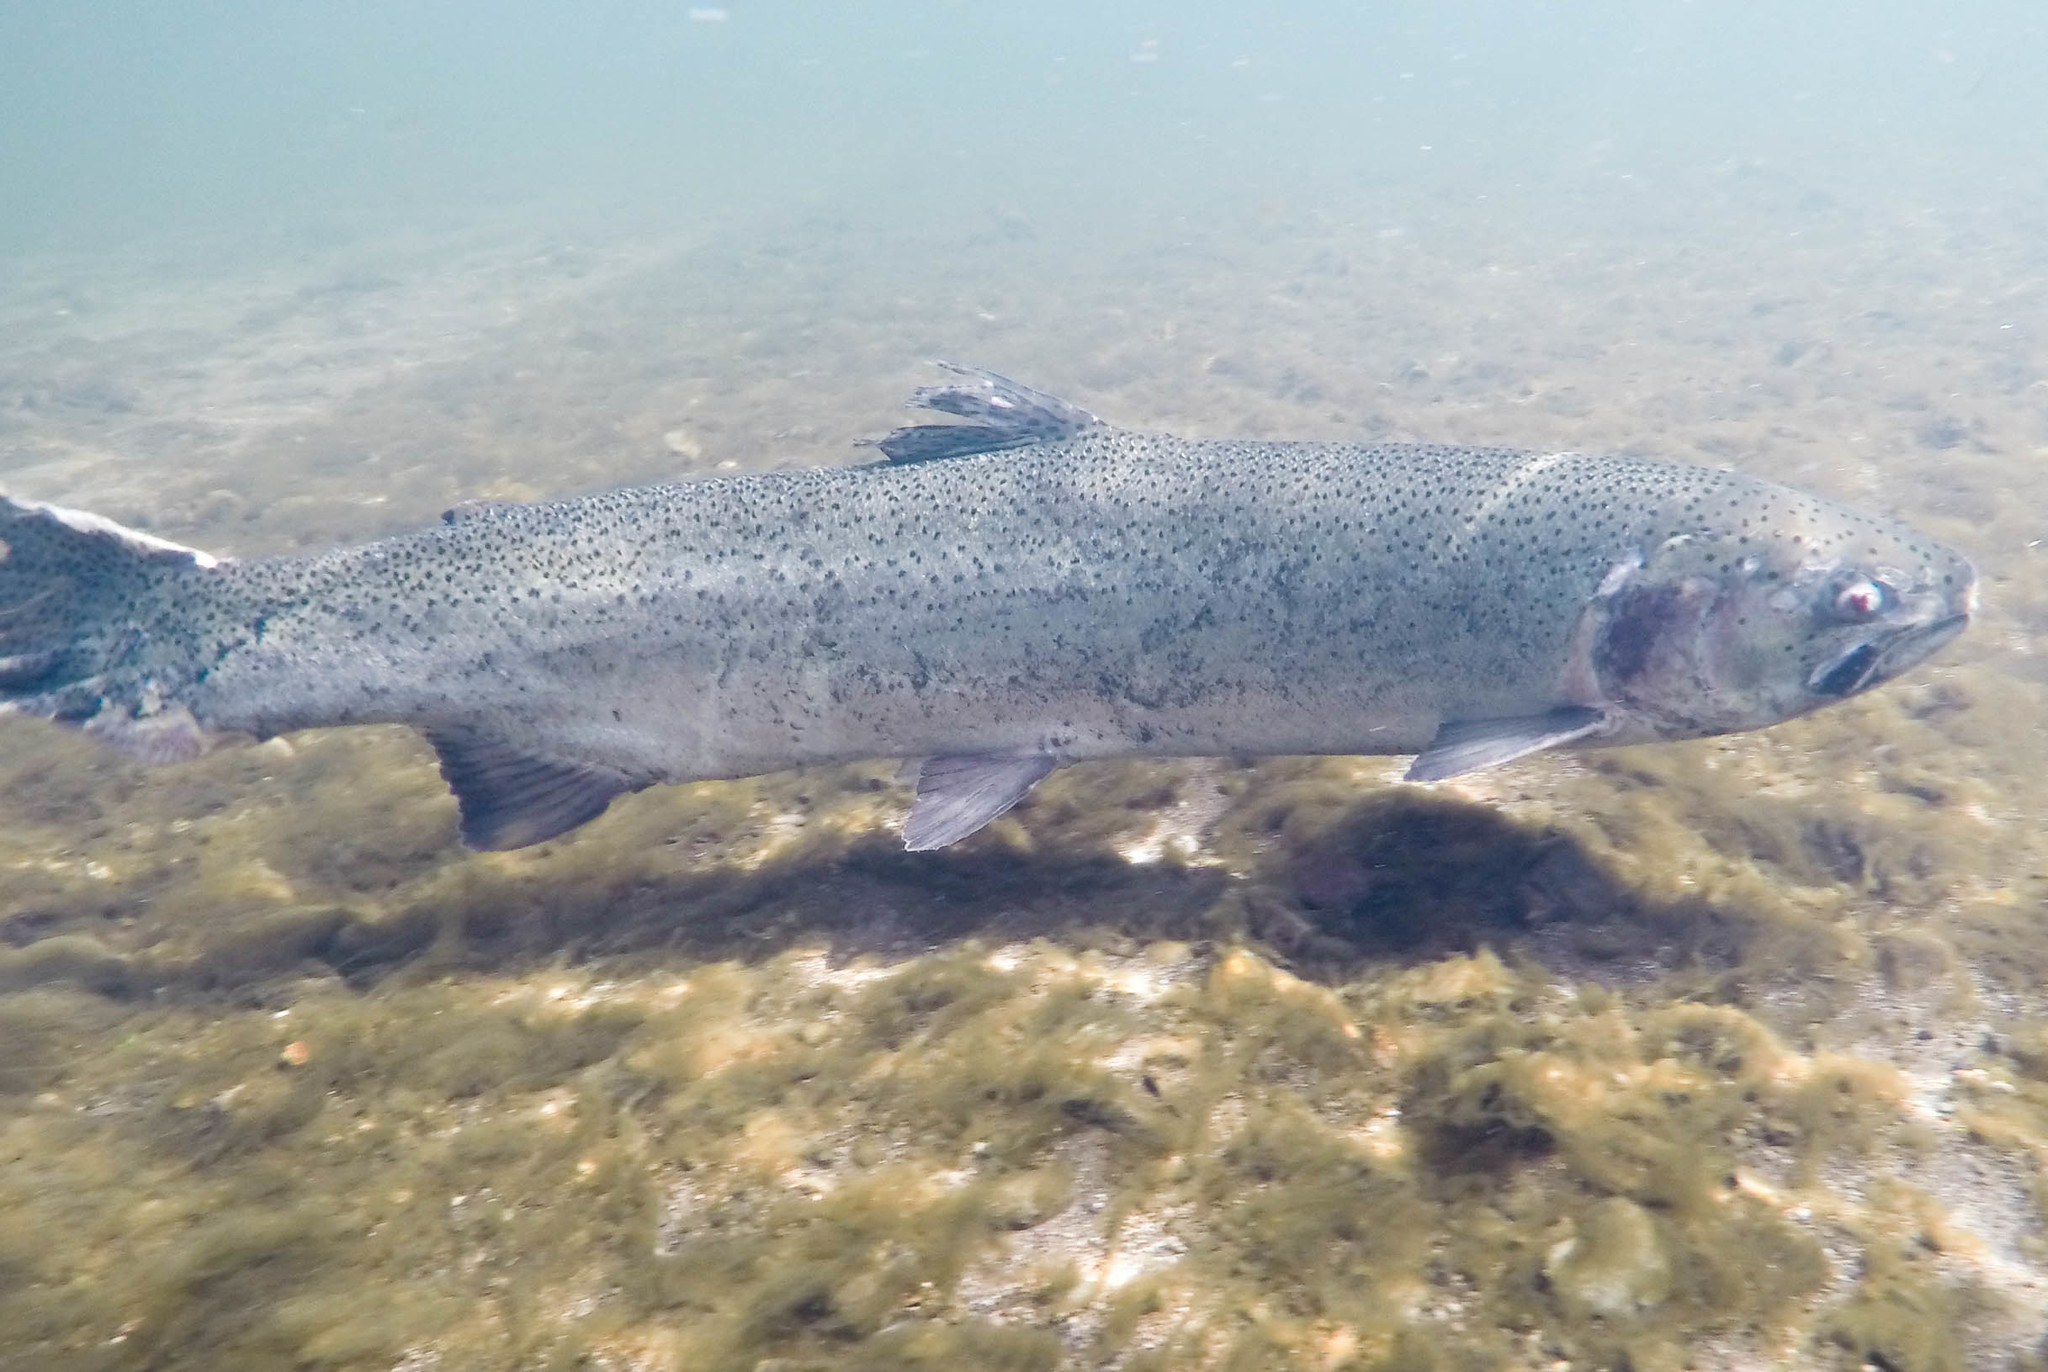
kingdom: Animalia
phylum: Chordata
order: Salmoniformes
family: Salmonidae
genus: Oncorhynchus
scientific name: Oncorhynchus mykiss
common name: Rainbow trout
